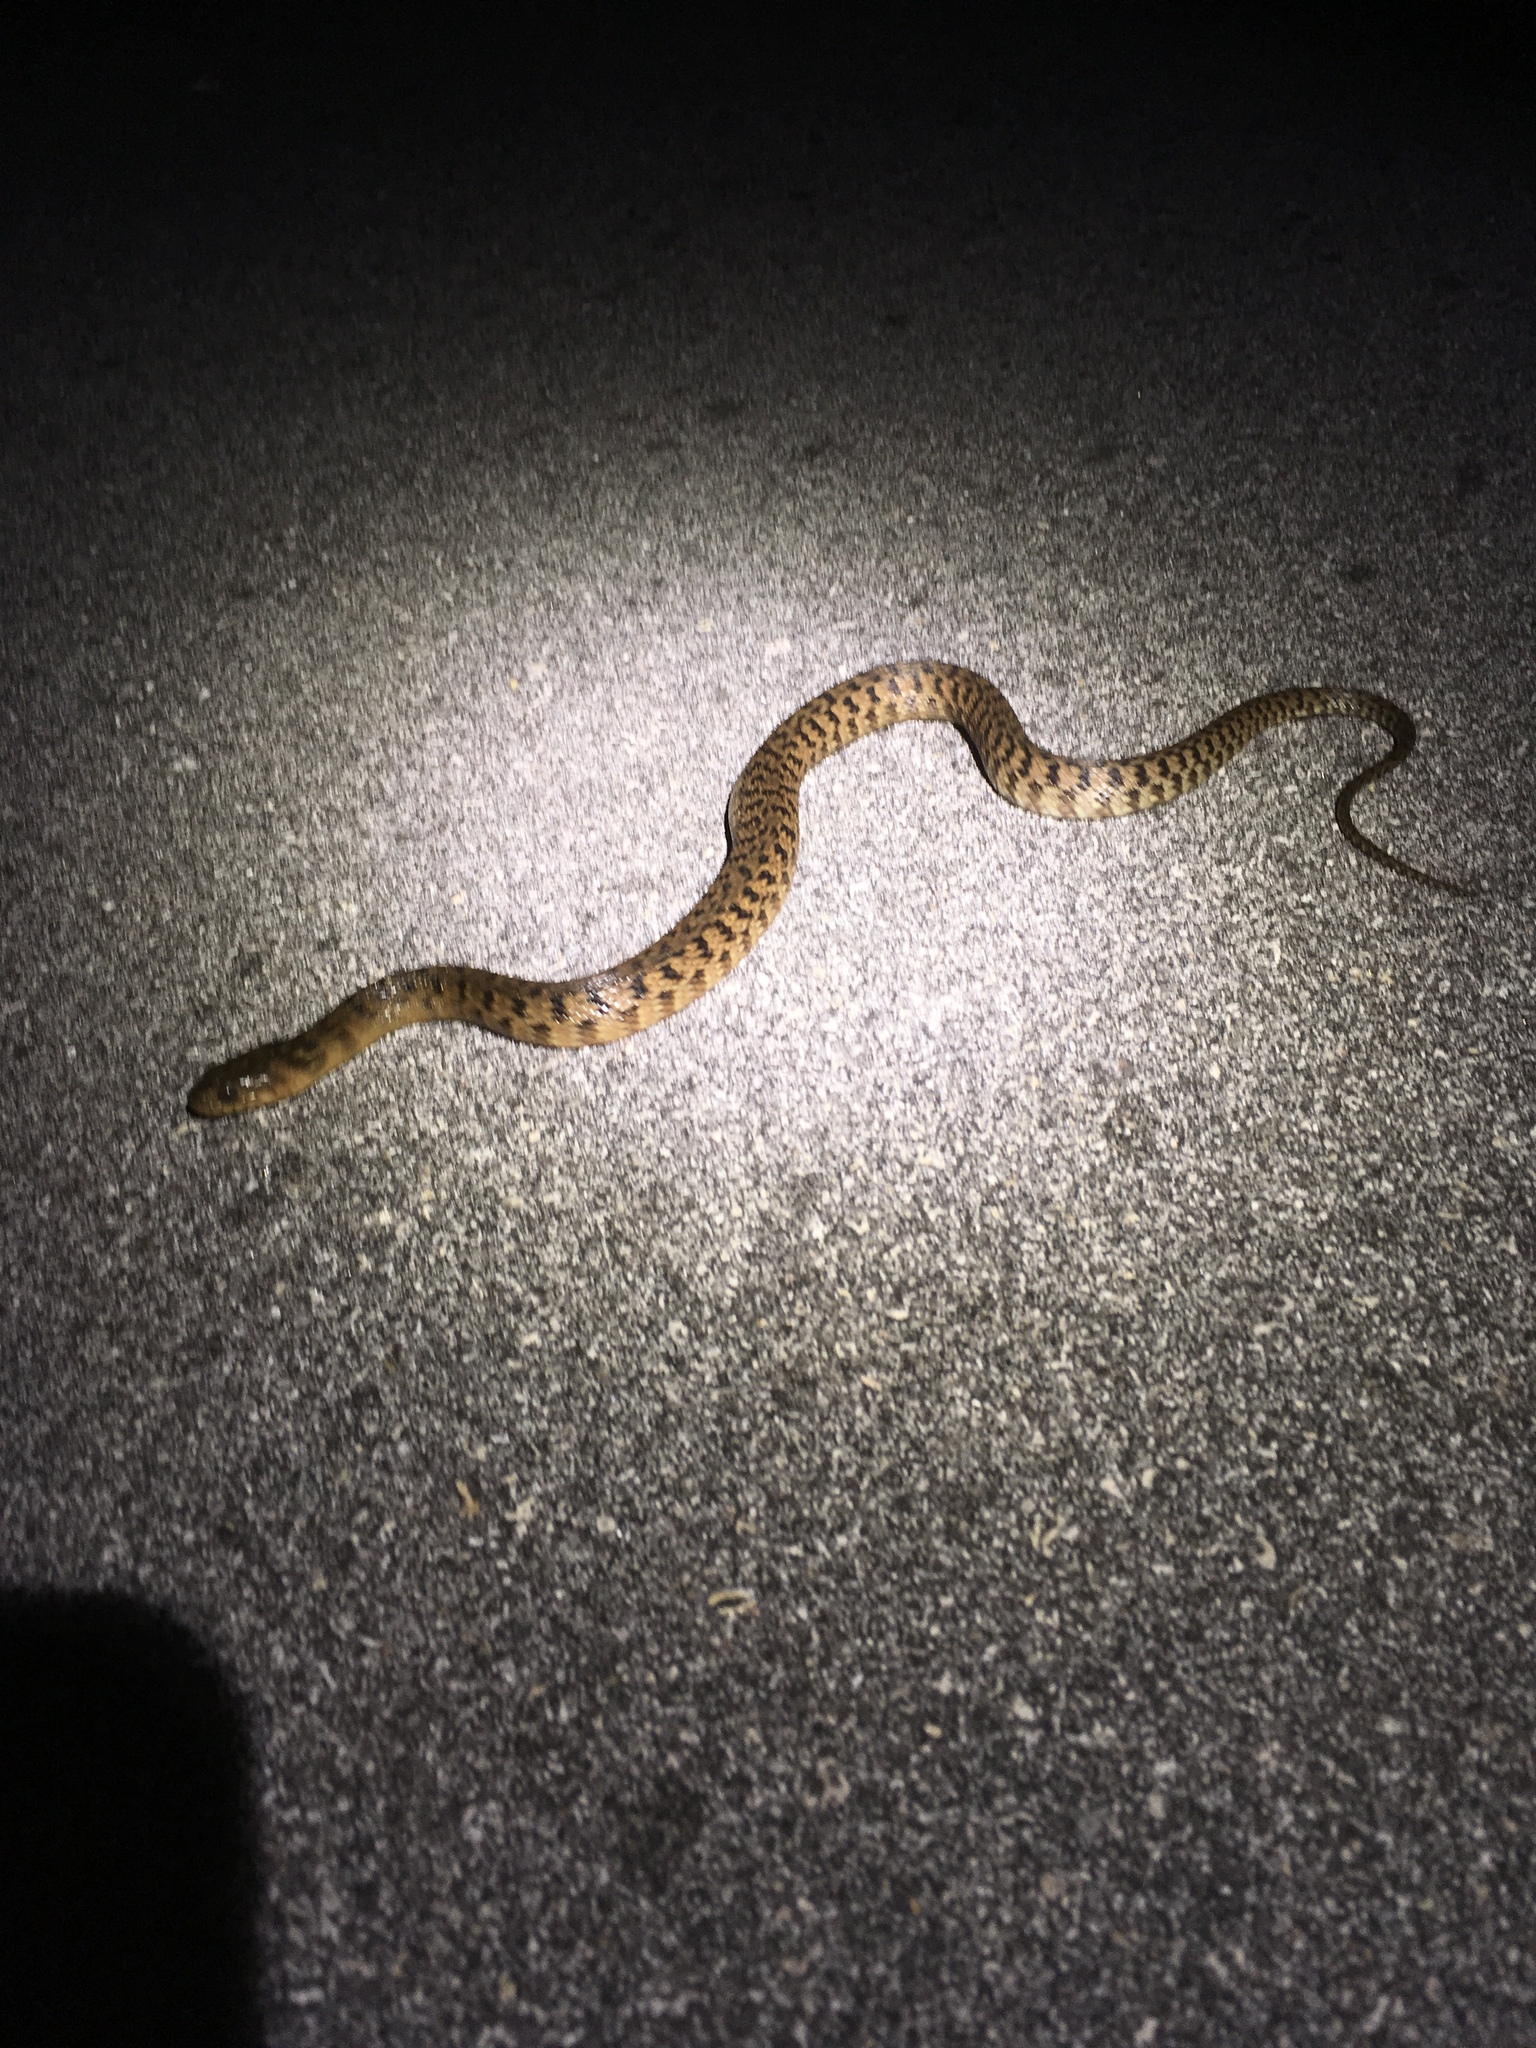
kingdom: Animalia
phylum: Chordata
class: Squamata
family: Colubridae
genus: Nerodia
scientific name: Nerodia floridana
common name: Florida green watersnake
